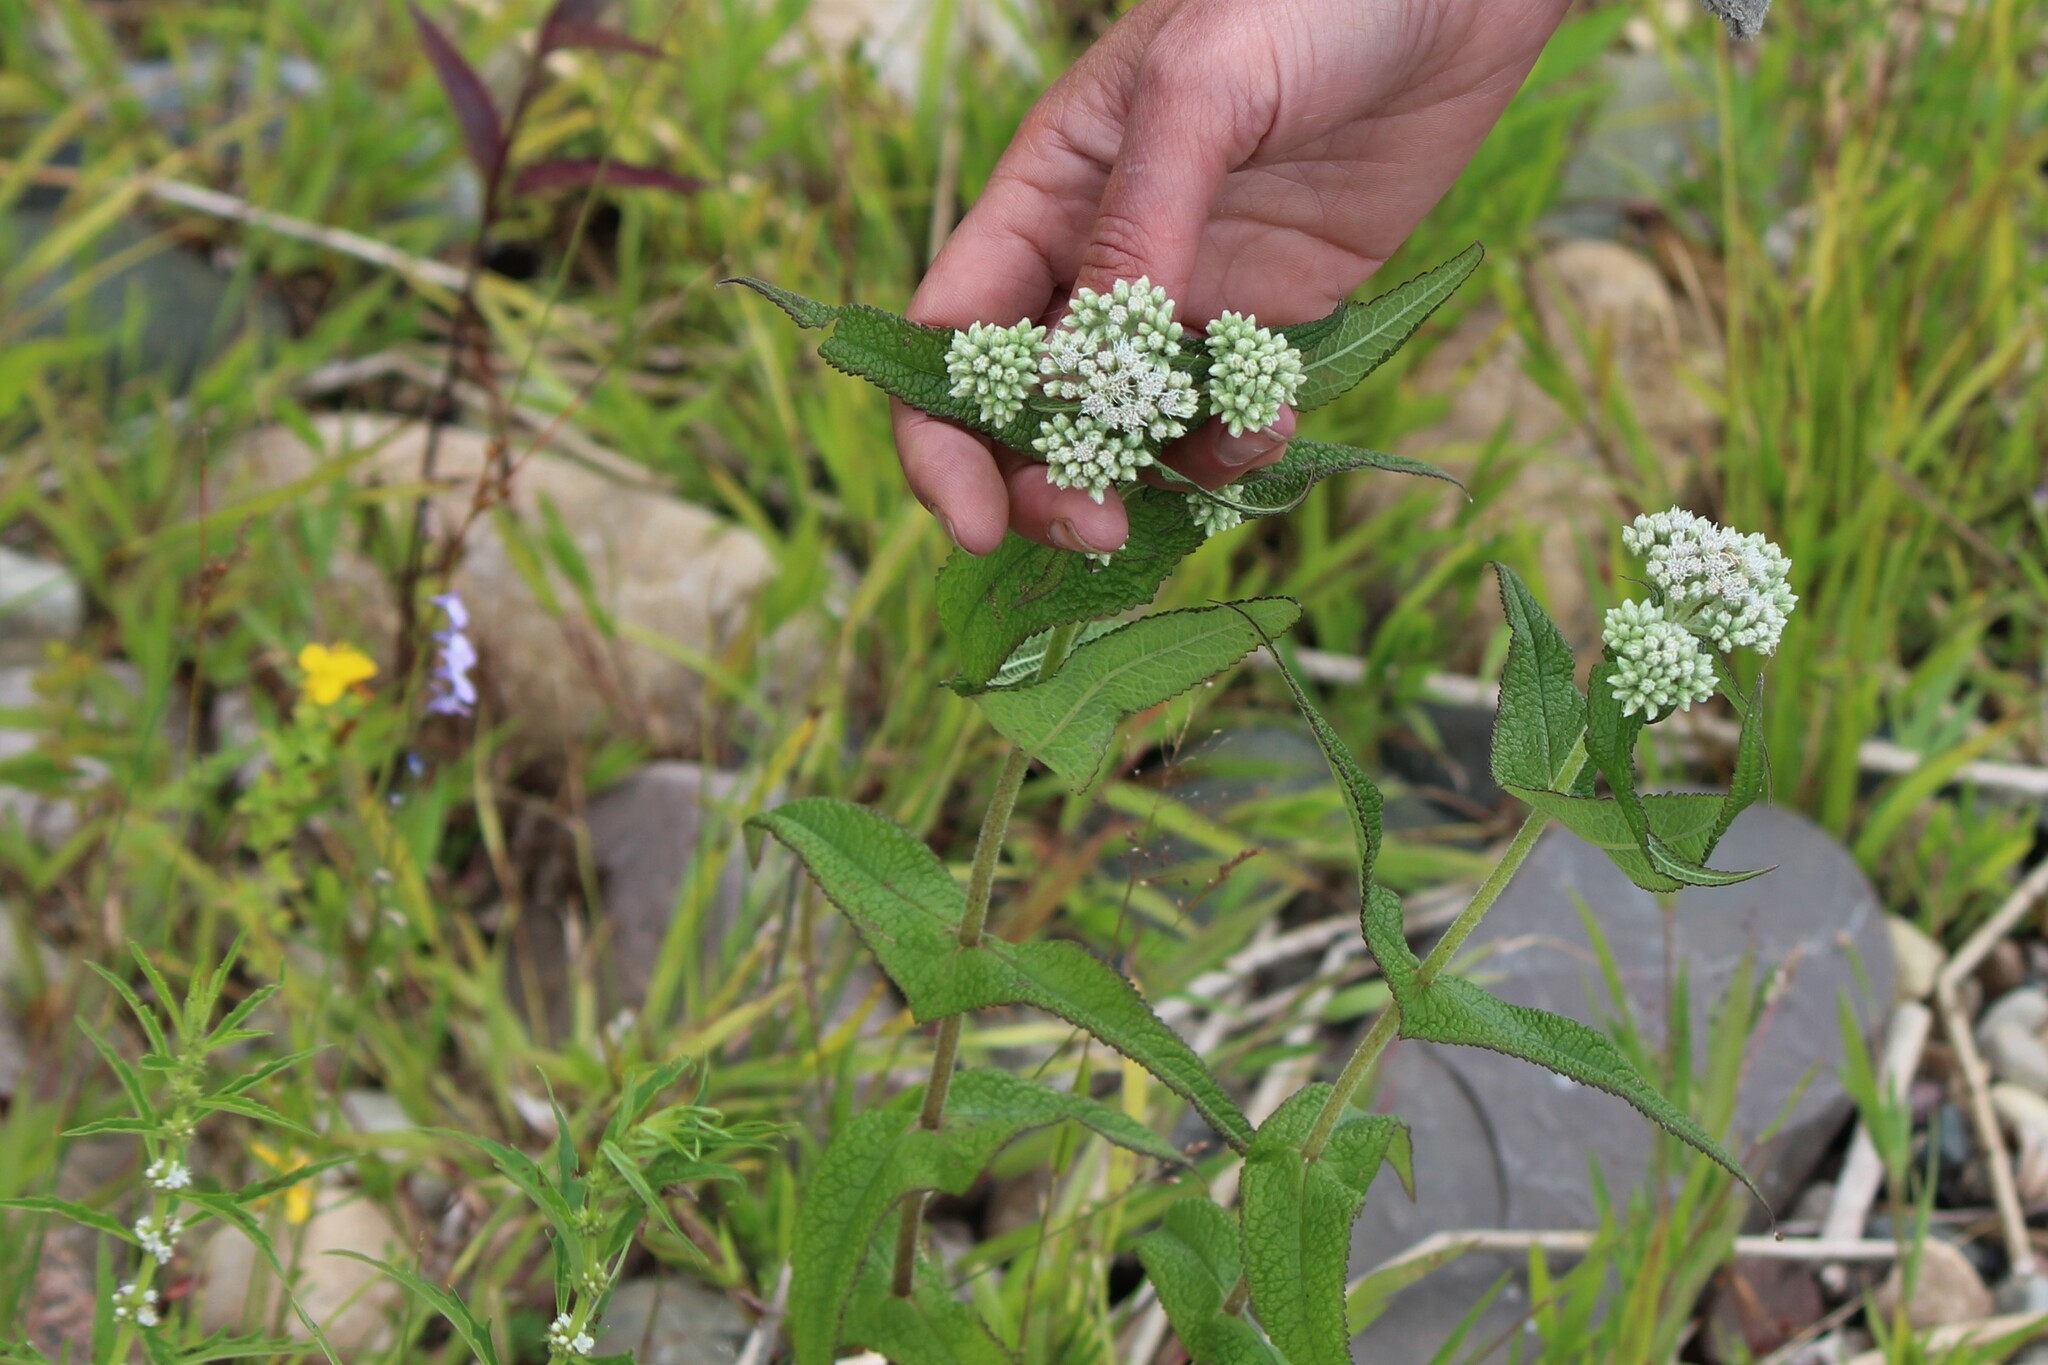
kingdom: Plantae
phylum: Tracheophyta
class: Magnoliopsida
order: Asterales
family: Asteraceae
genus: Eupatorium
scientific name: Eupatorium perfoliatum
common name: Boneset
